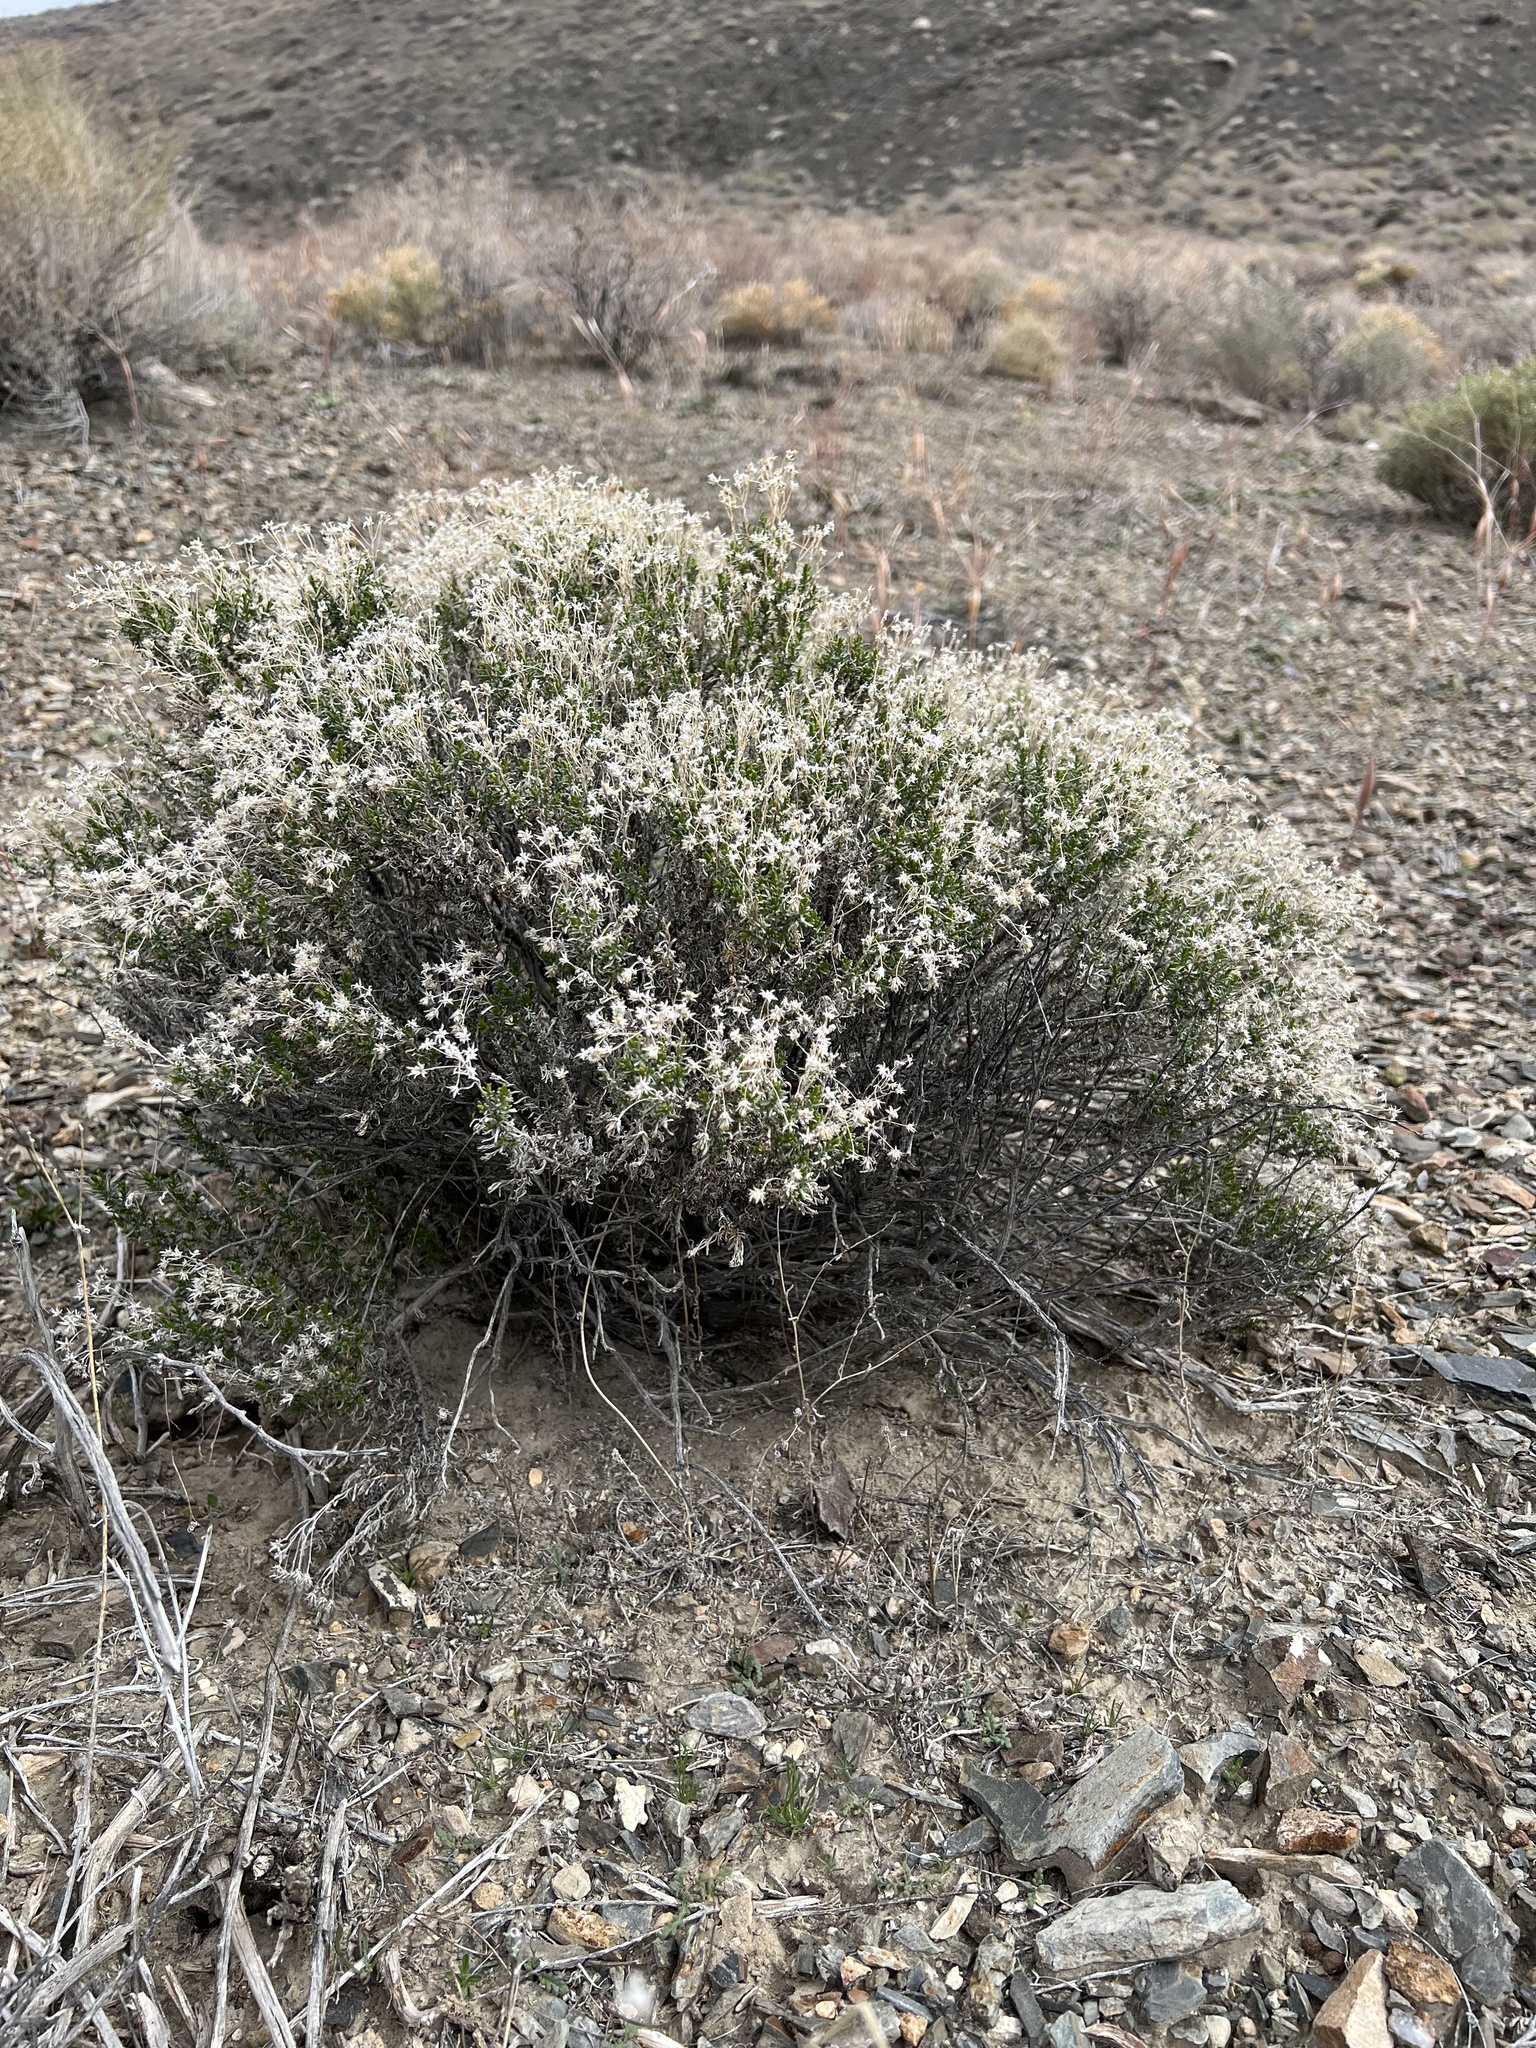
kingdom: Plantae
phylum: Tracheophyta
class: Magnoliopsida
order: Asterales
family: Asteraceae
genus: Ericameria
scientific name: Ericameria cooperi
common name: Cooper's goldenbush
